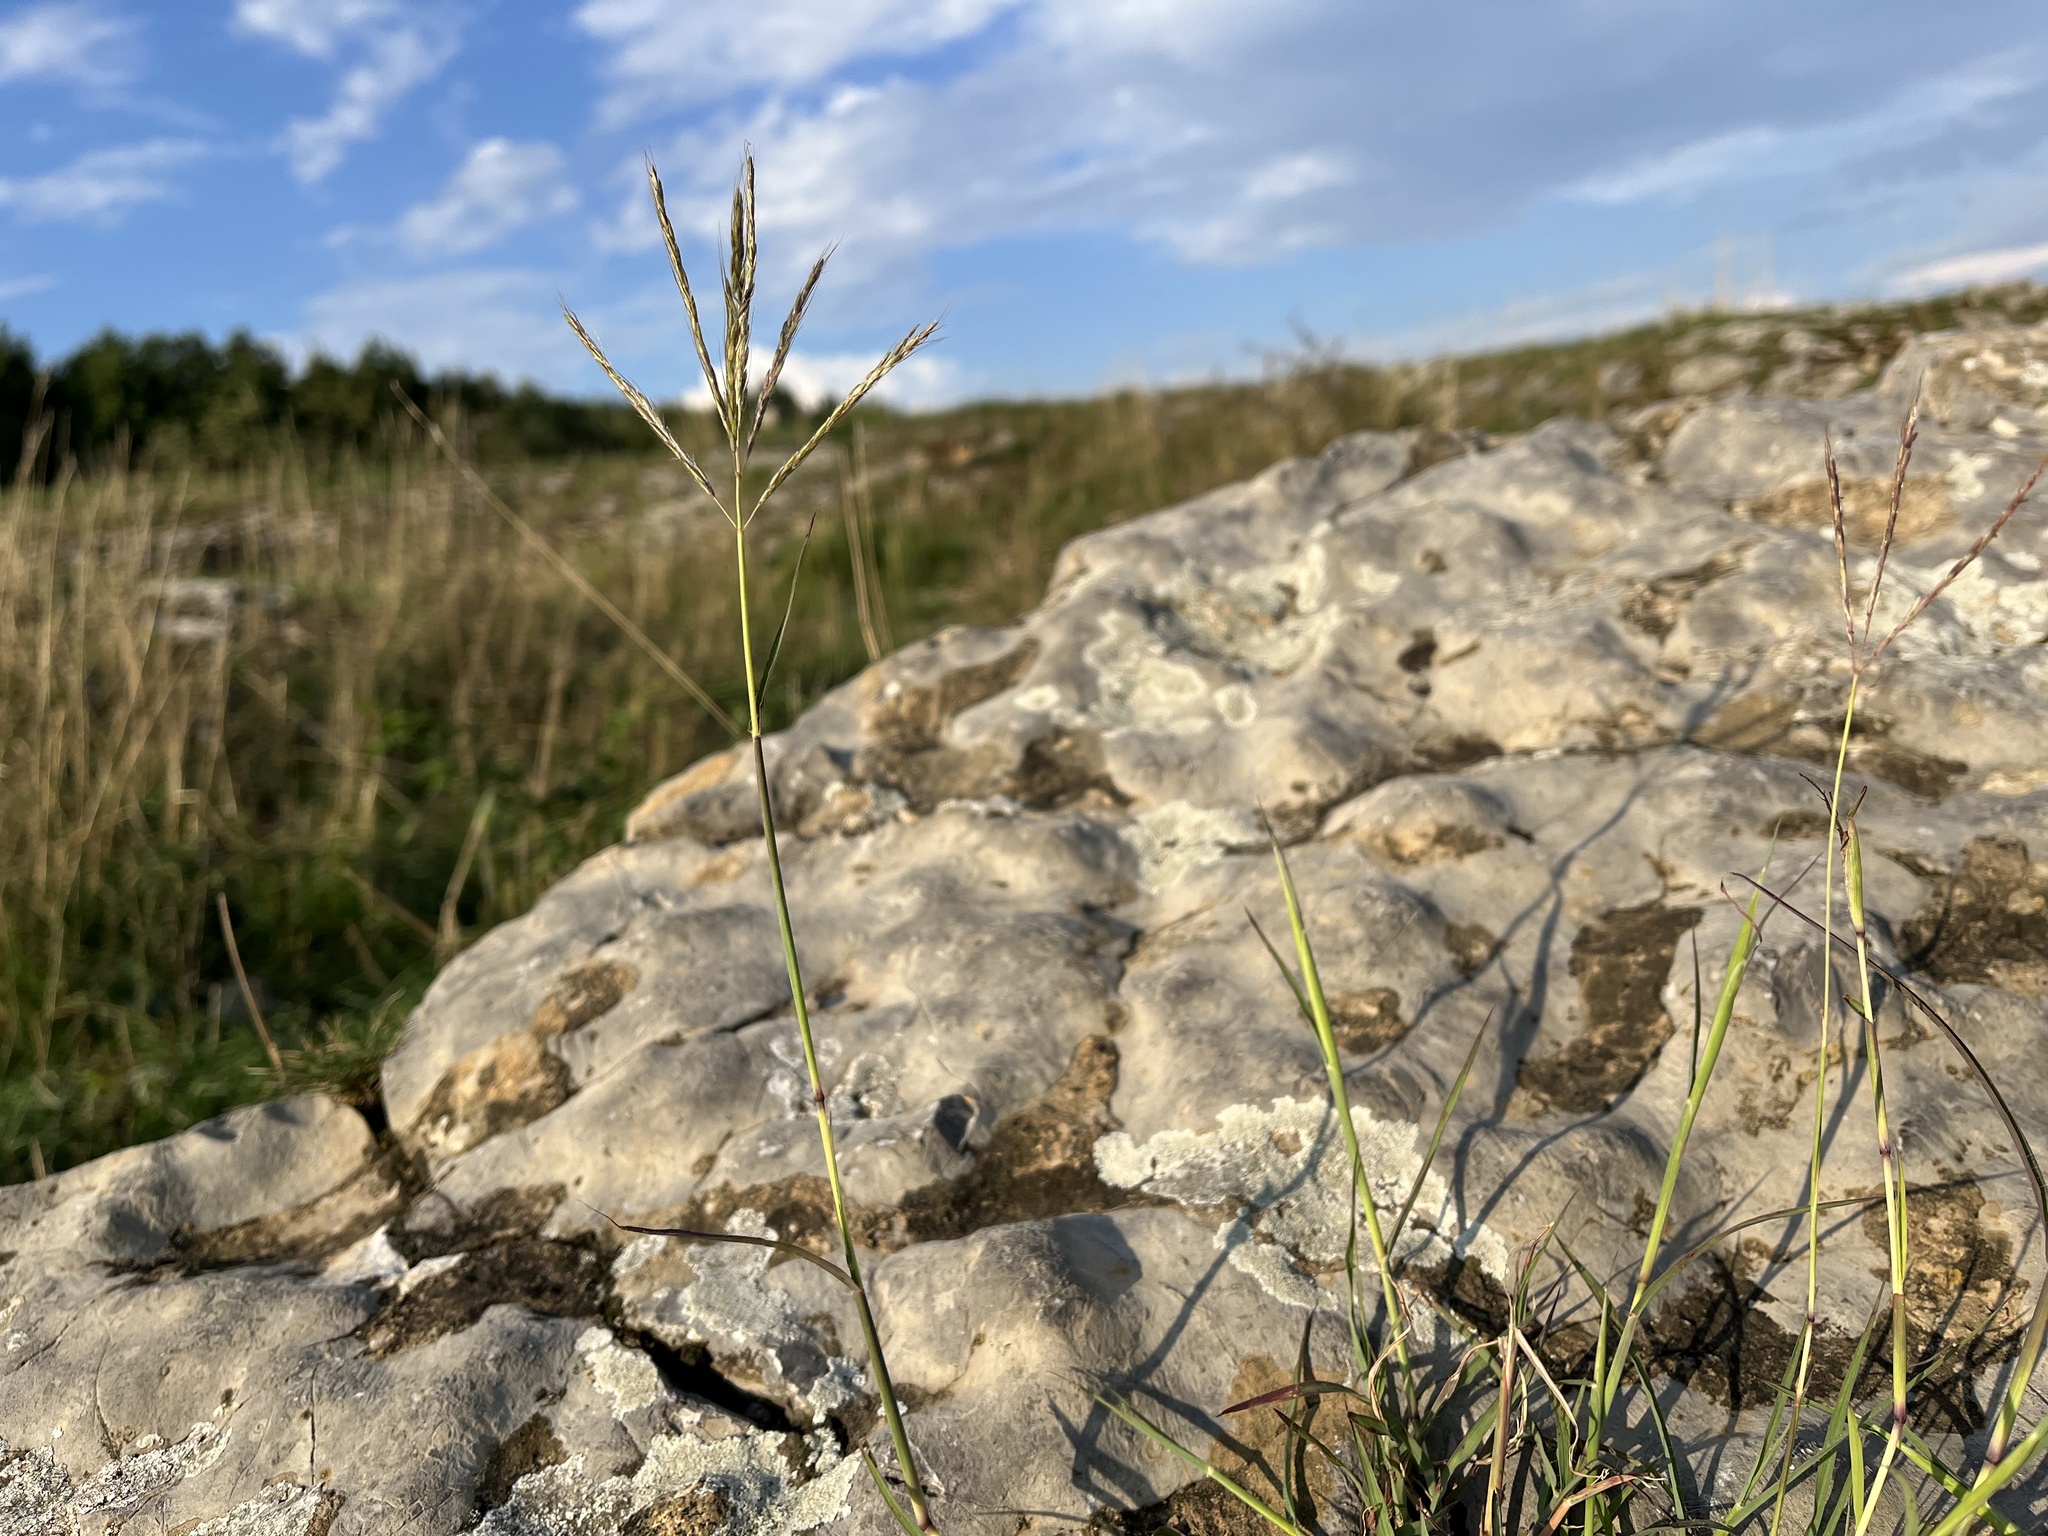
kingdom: Plantae
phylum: Tracheophyta
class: Liliopsida
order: Poales
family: Poaceae
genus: Bothriochloa
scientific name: Bothriochloa ischaemum
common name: Yellow bluestem
